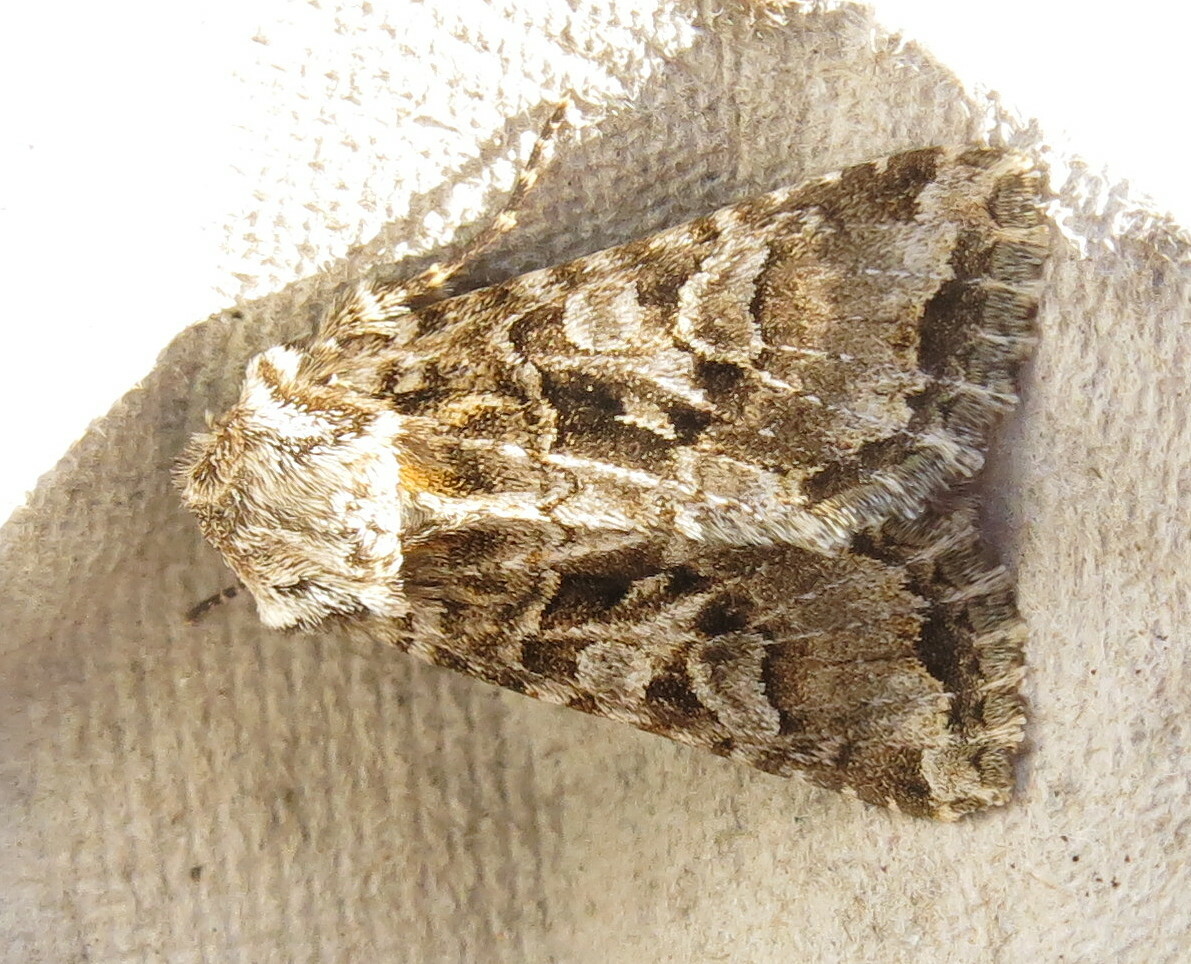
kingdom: Animalia
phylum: Arthropoda
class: Insecta
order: Lepidoptera
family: Noctuidae
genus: Hada
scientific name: Hada plebeja
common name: Shears
